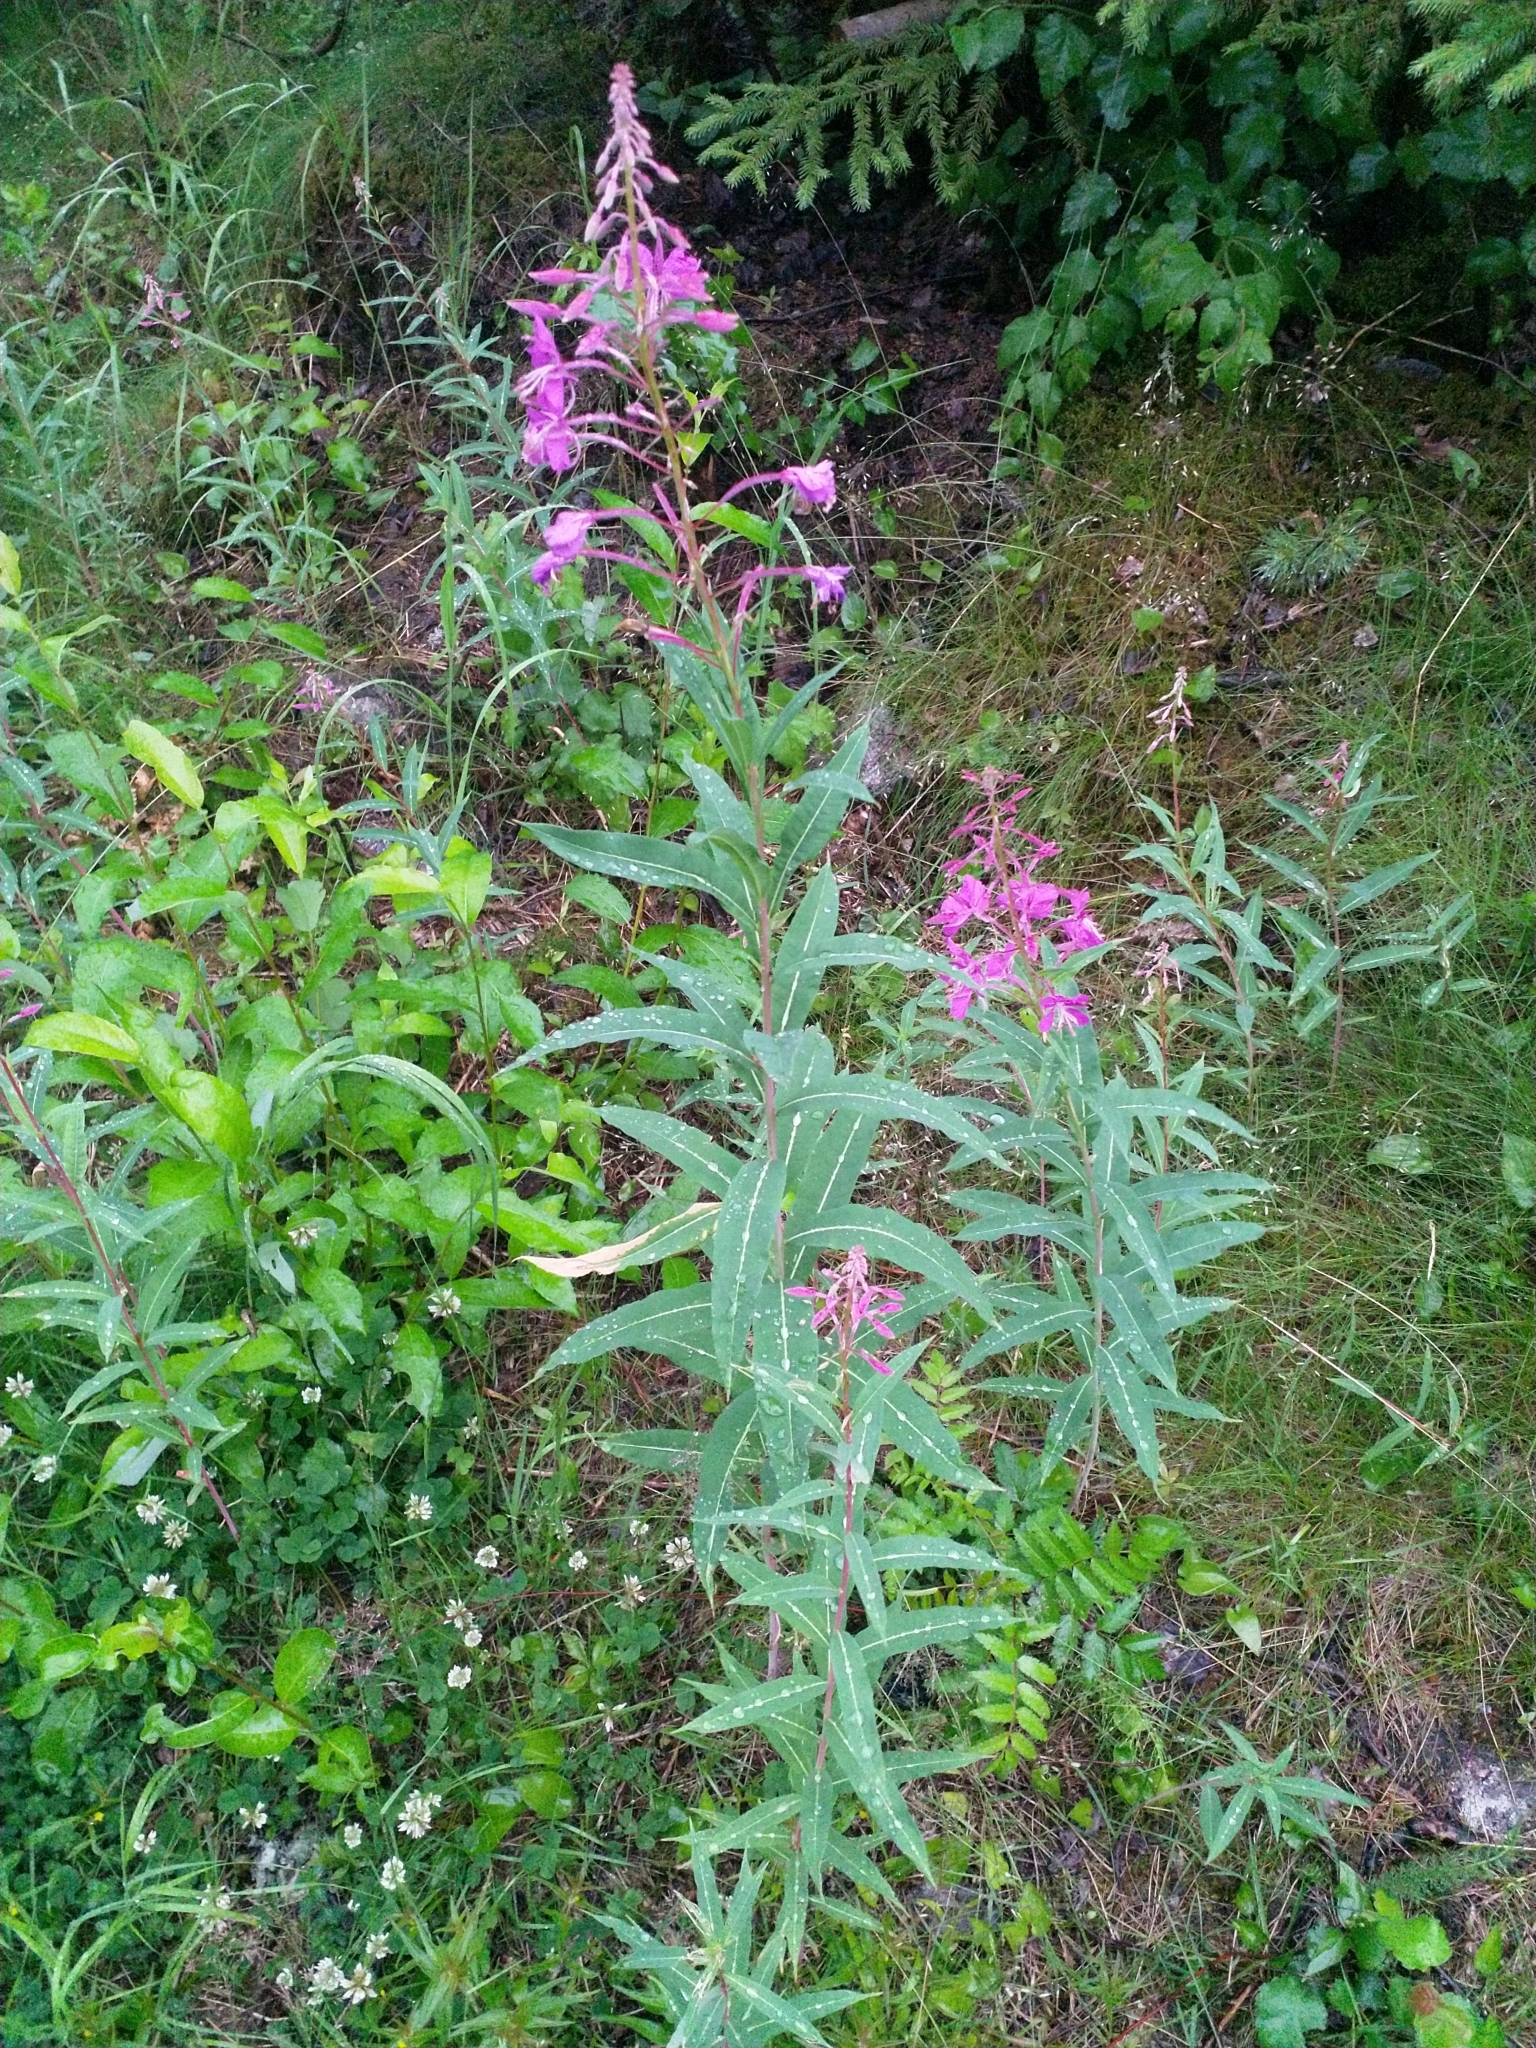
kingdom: Plantae
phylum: Tracheophyta
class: Magnoliopsida
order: Myrtales
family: Onagraceae
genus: Chamaenerion
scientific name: Chamaenerion angustifolium
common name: Fireweed
